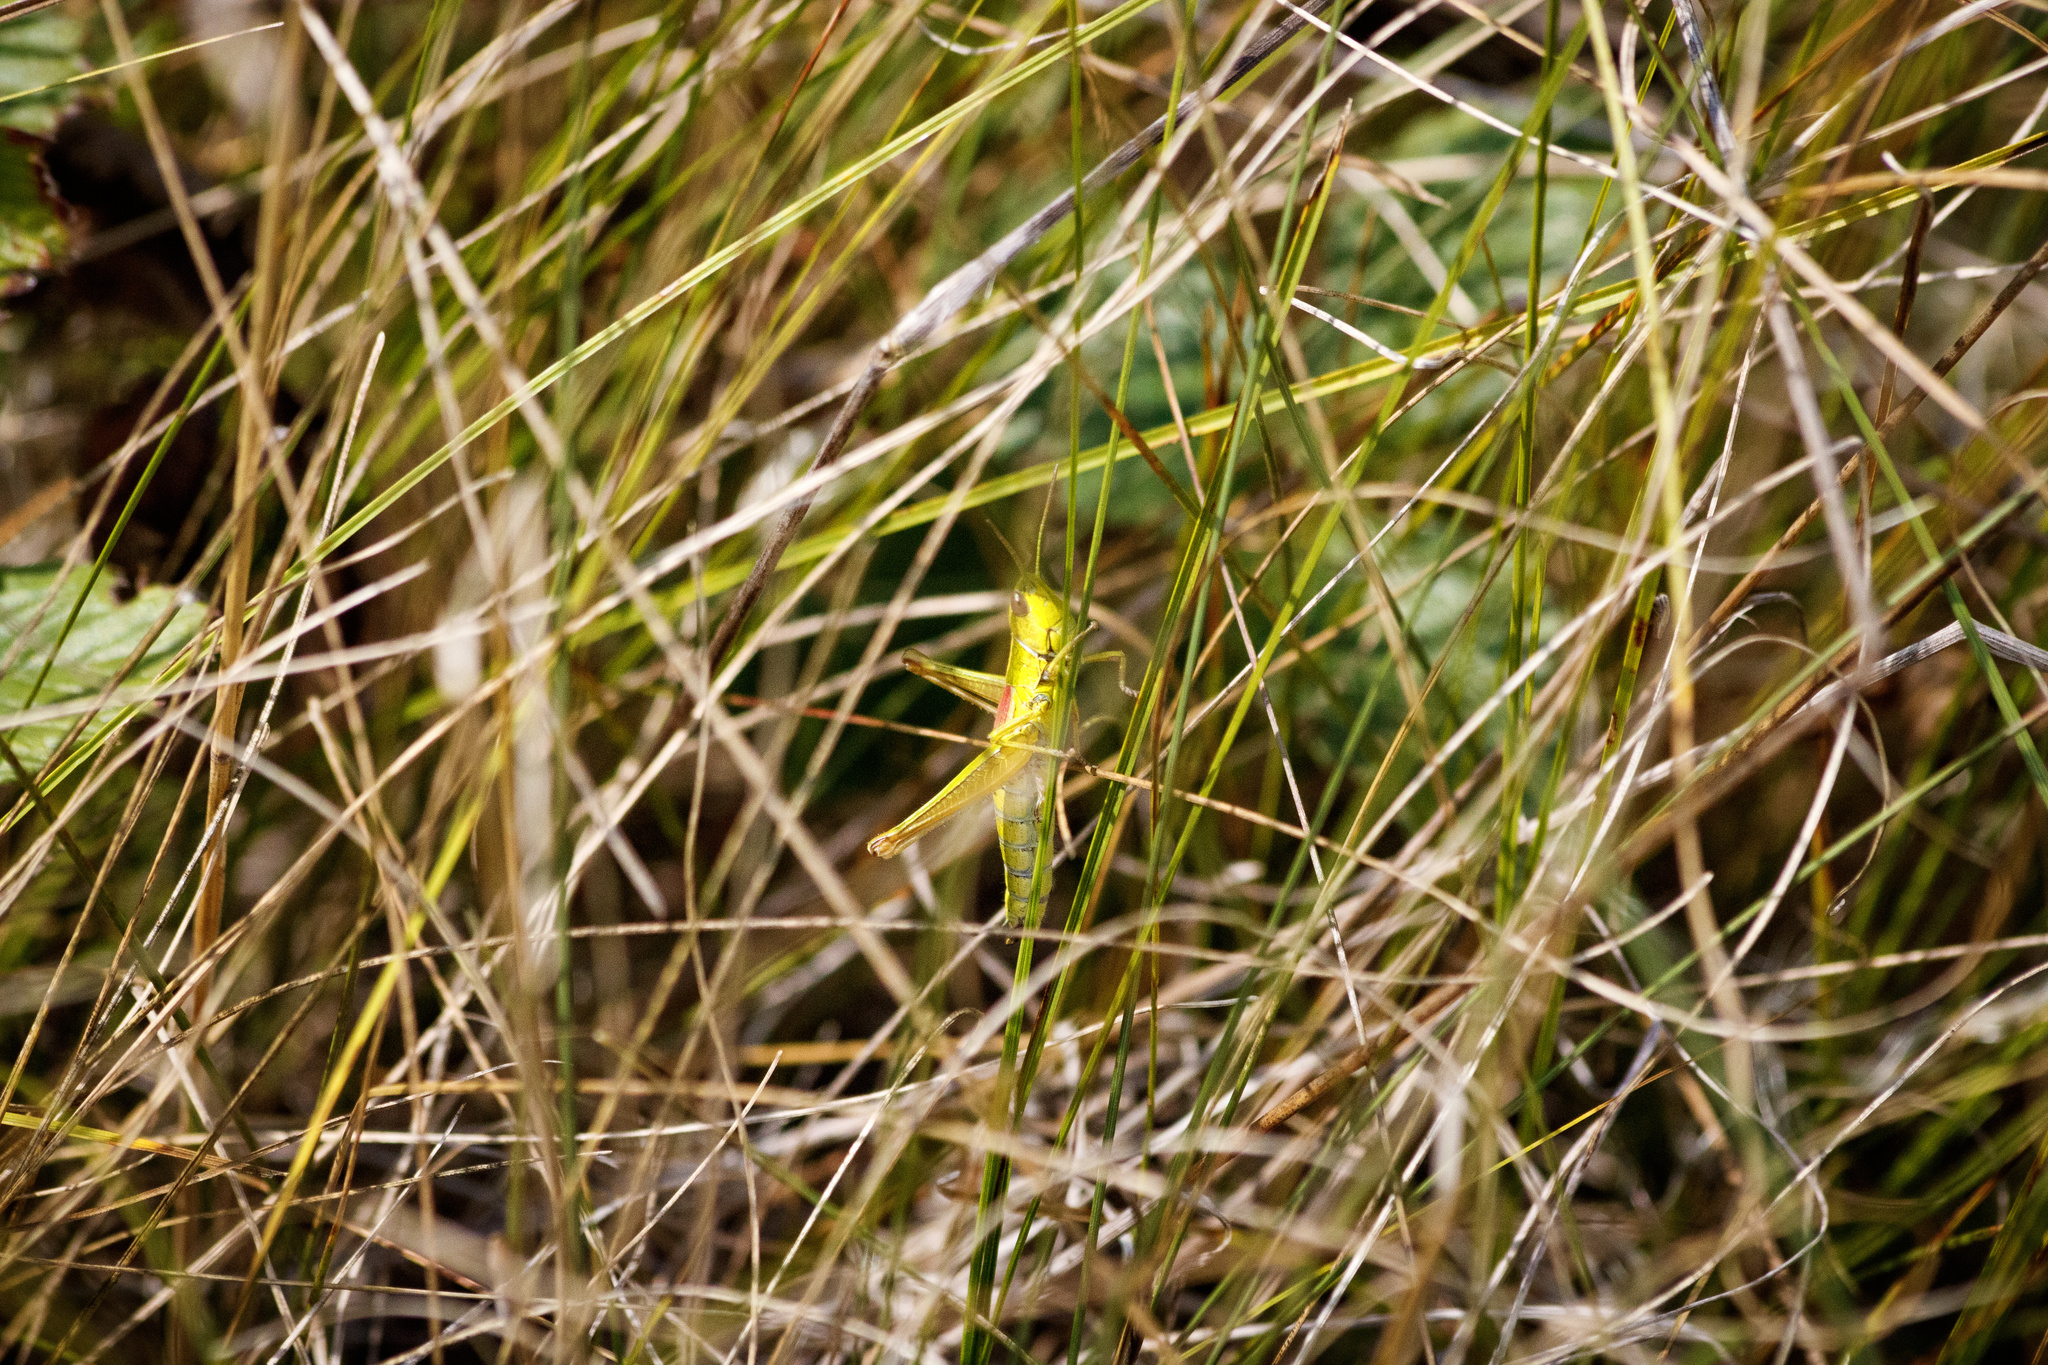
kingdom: Animalia
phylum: Arthropoda
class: Insecta
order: Orthoptera
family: Acrididae
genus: Euthystira
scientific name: Euthystira brachyptera
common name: Small gold grasshopper
